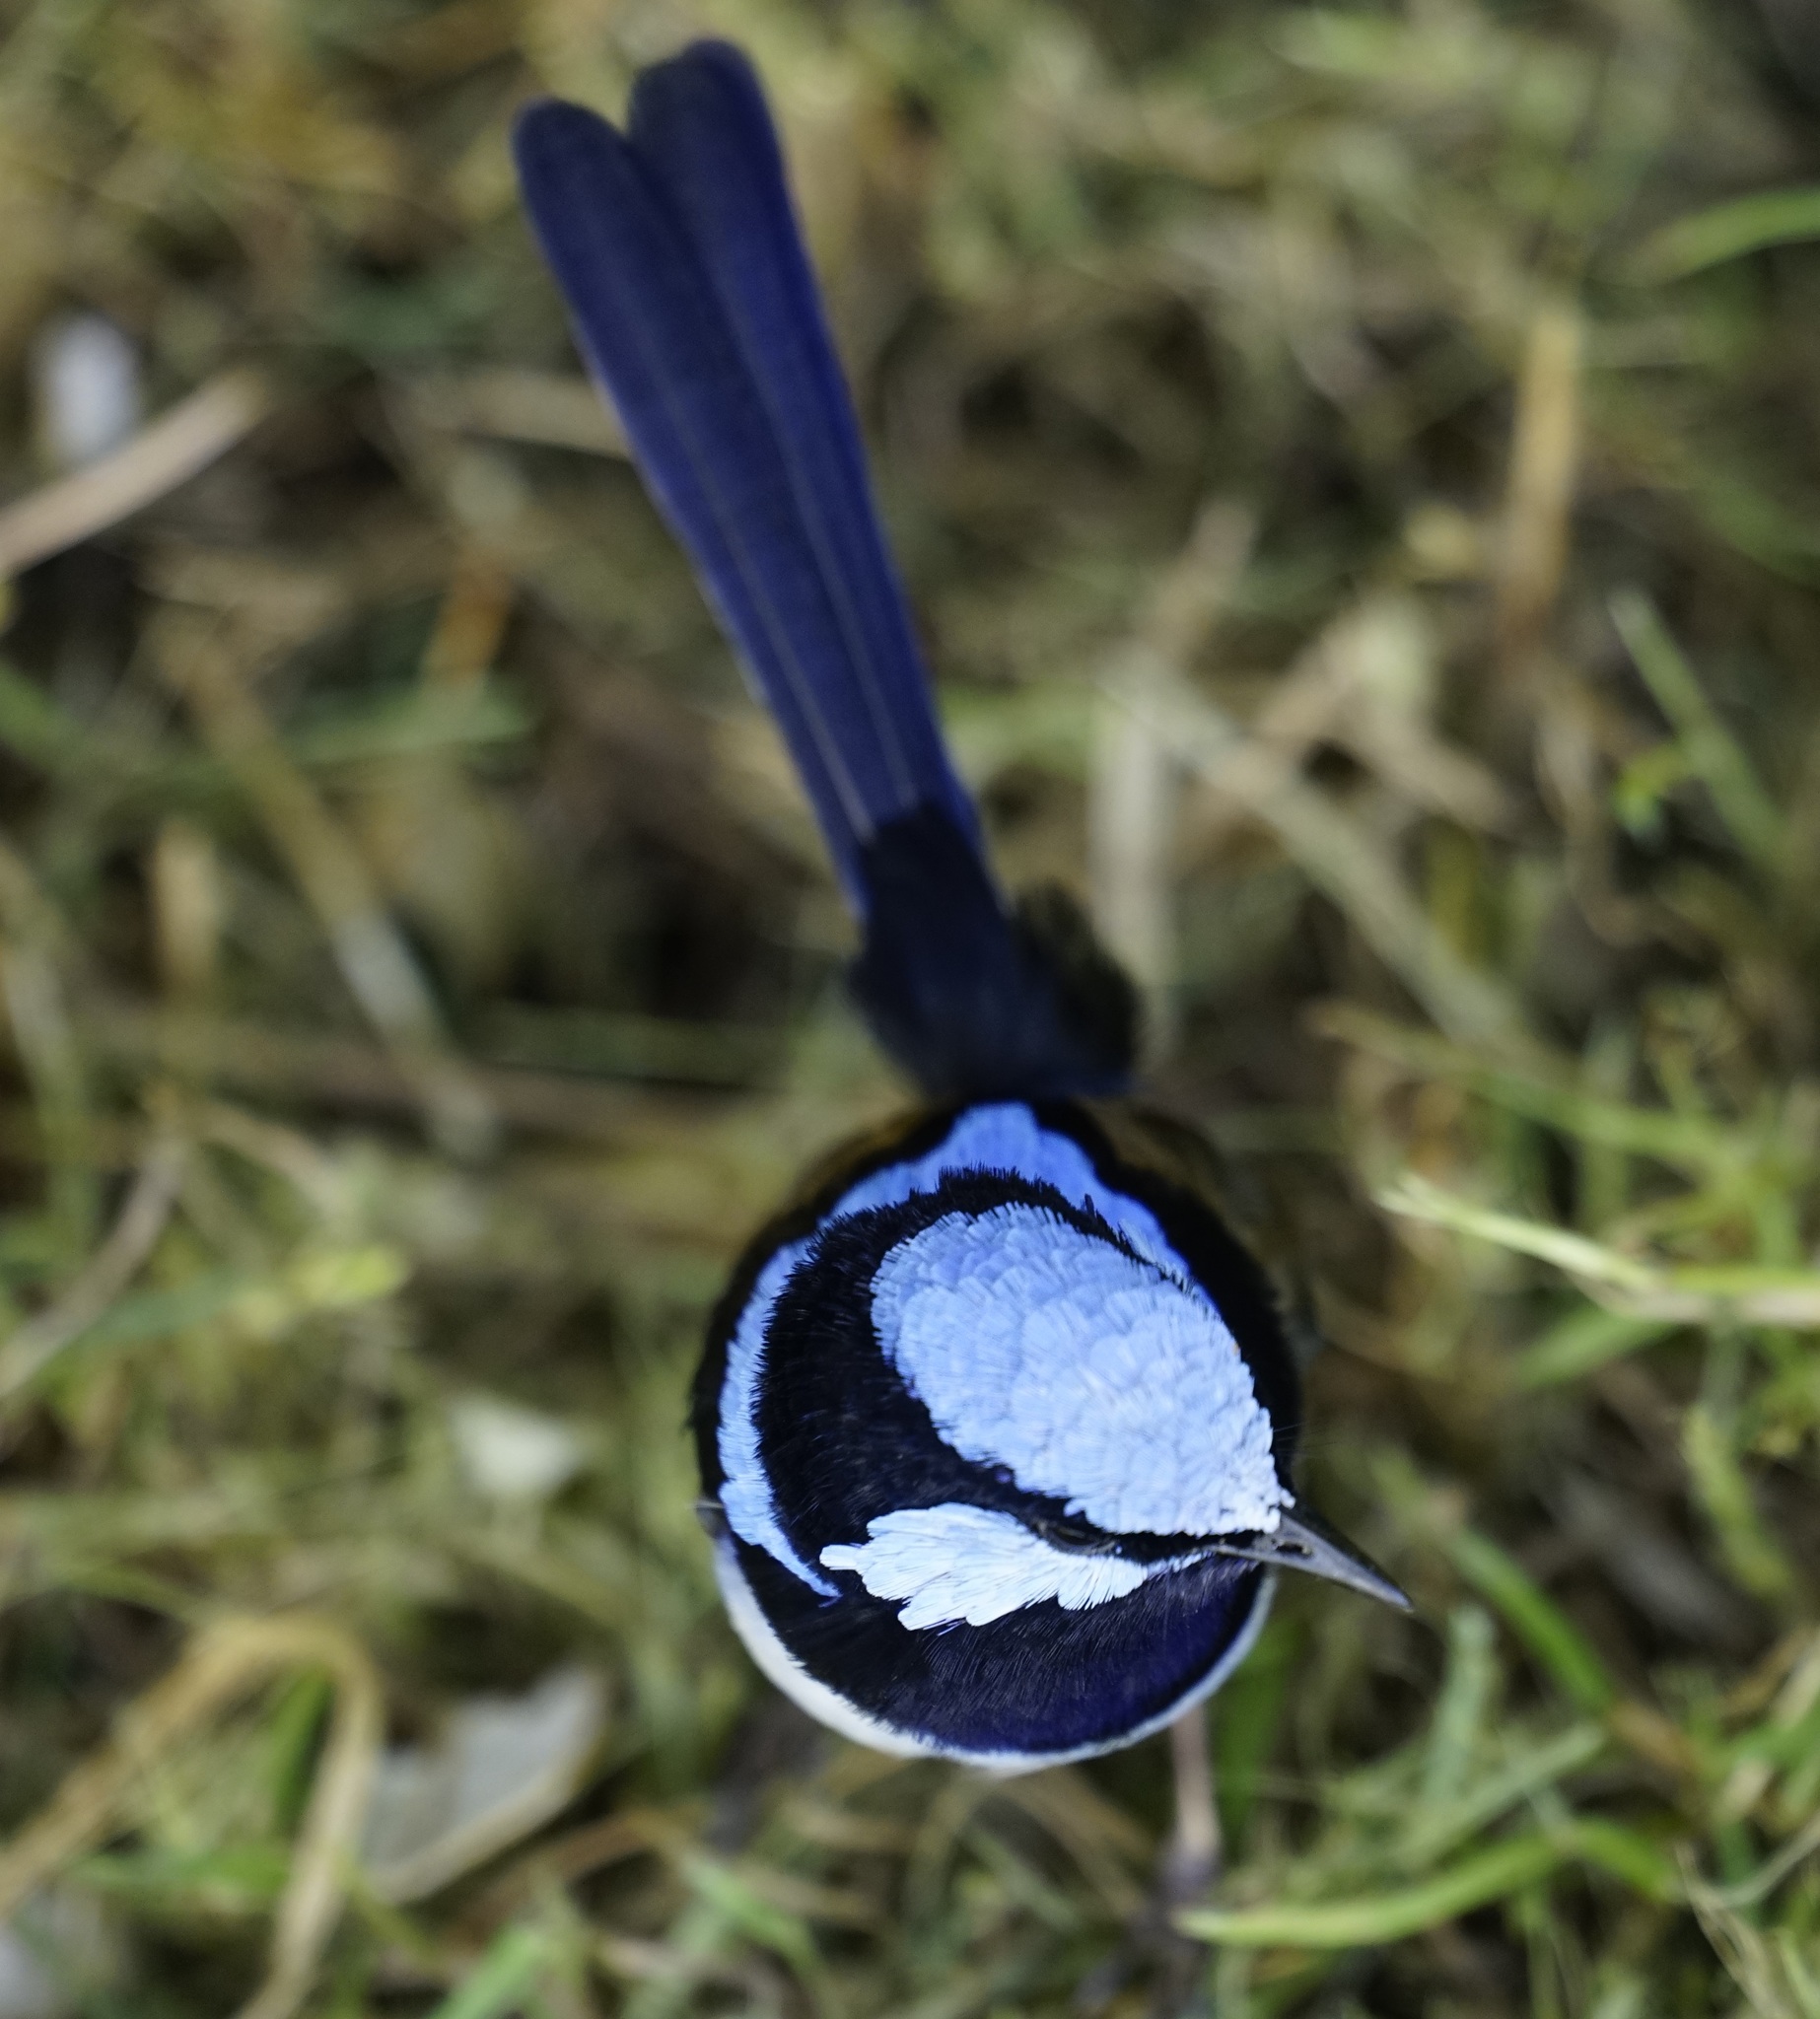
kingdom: Animalia
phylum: Chordata
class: Aves
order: Passeriformes
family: Maluridae
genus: Malurus
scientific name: Malurus cyaneus
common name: Superb fairywren
